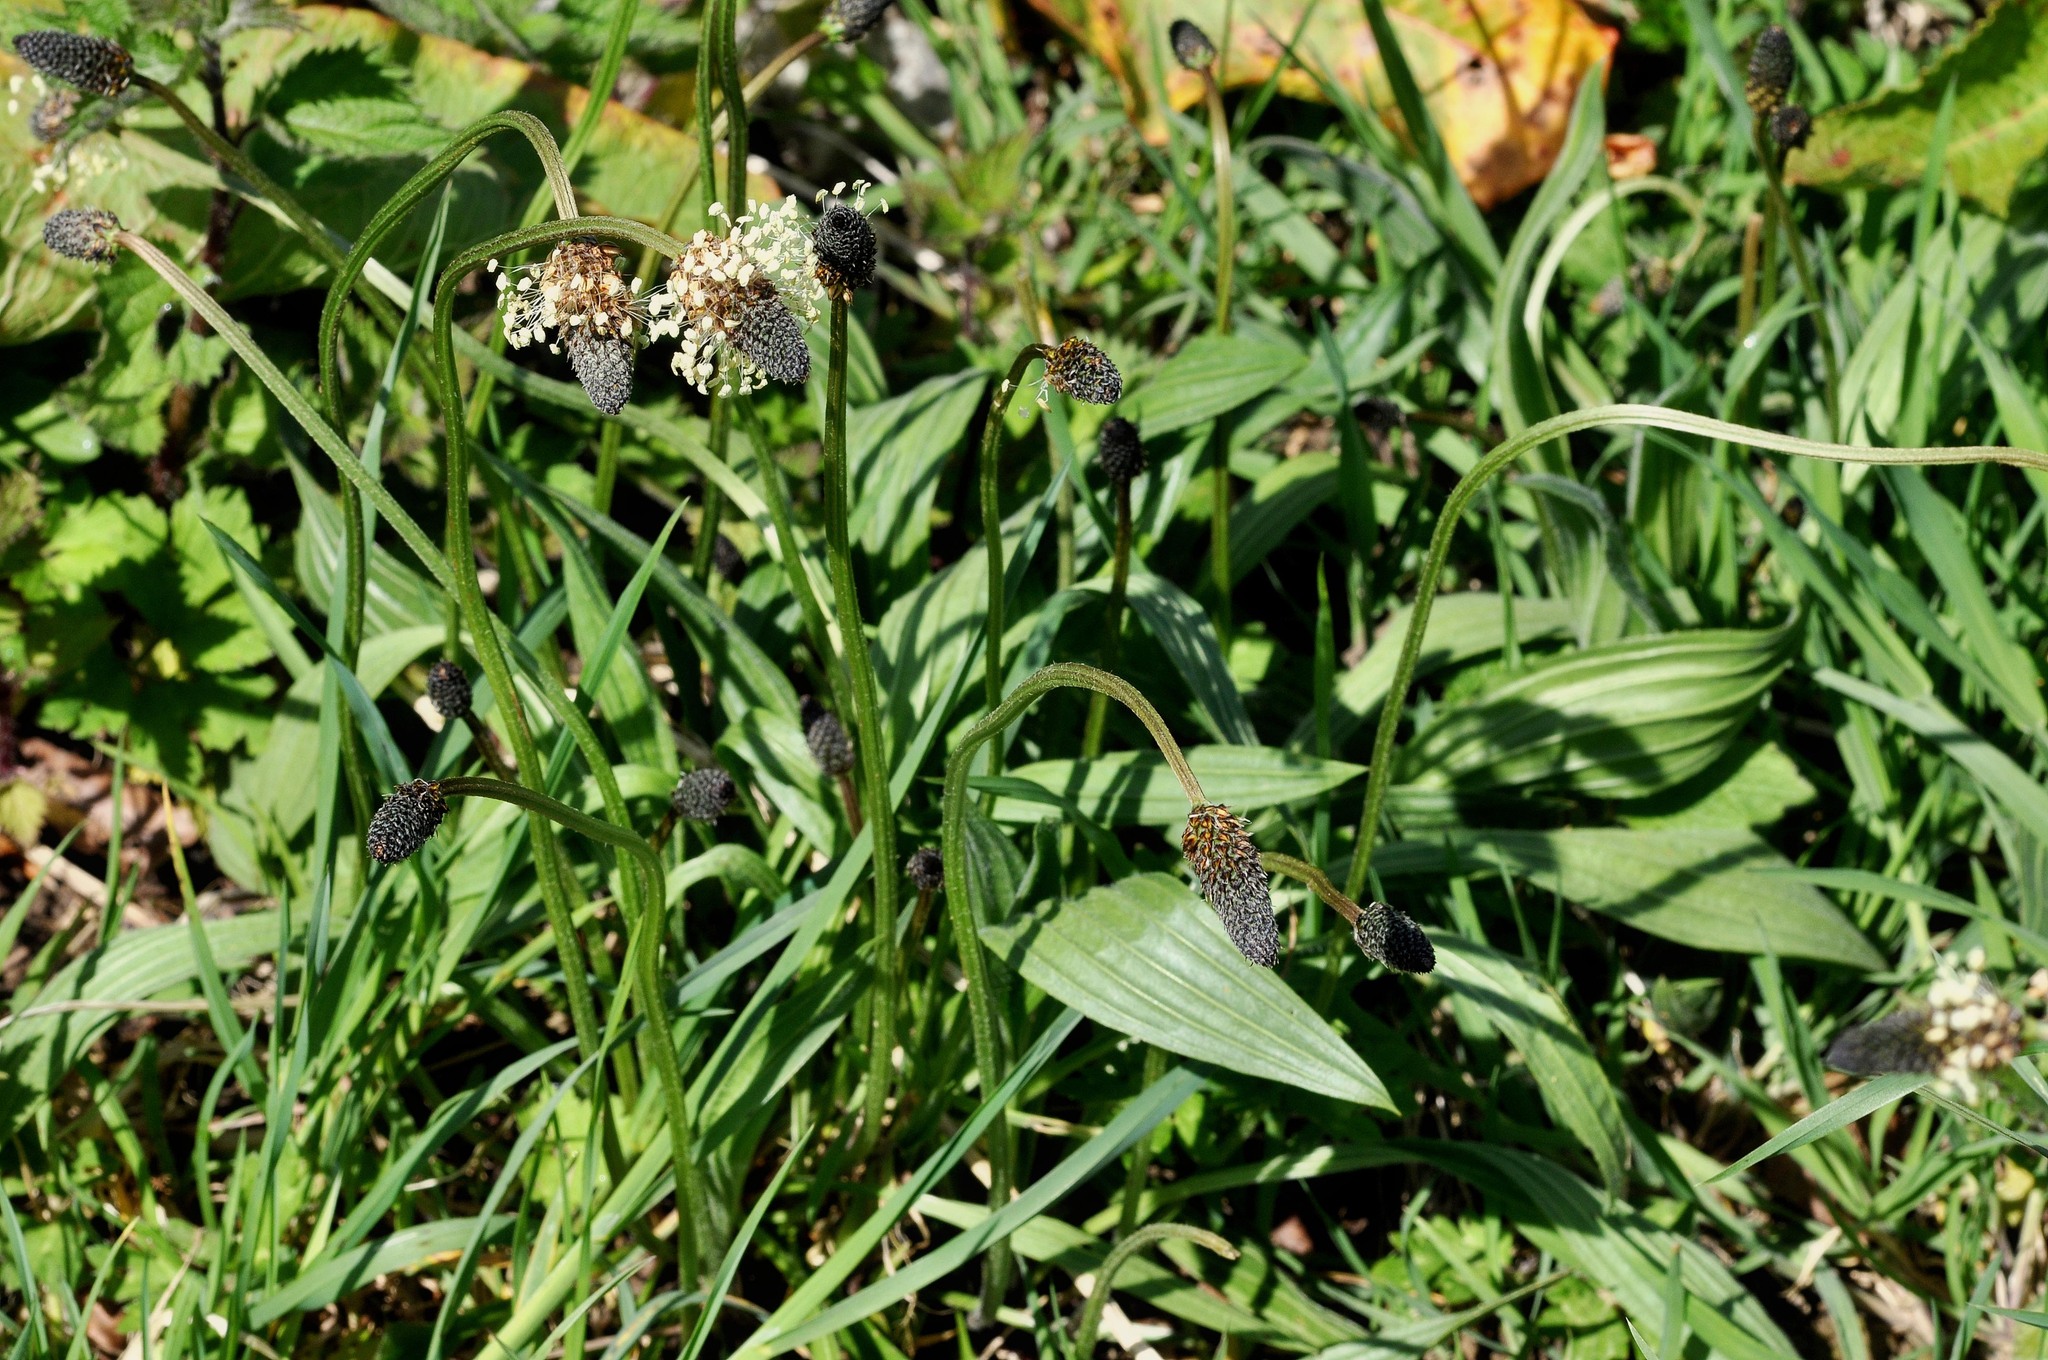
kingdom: Plantae
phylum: Tracheophyta
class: Magnoliopsida
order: Lamiales
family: Plantaginaceae
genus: Plantago
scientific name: Plantago lanceolata
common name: Ribwort plantain
